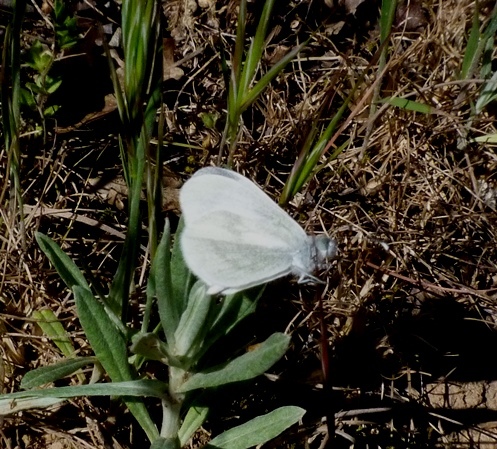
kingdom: Animalia
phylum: Arthropoda
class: Insecta
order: Lepidoptera
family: Pieridae
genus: Leptidea
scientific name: Leptidea sinapis
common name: Wood white
